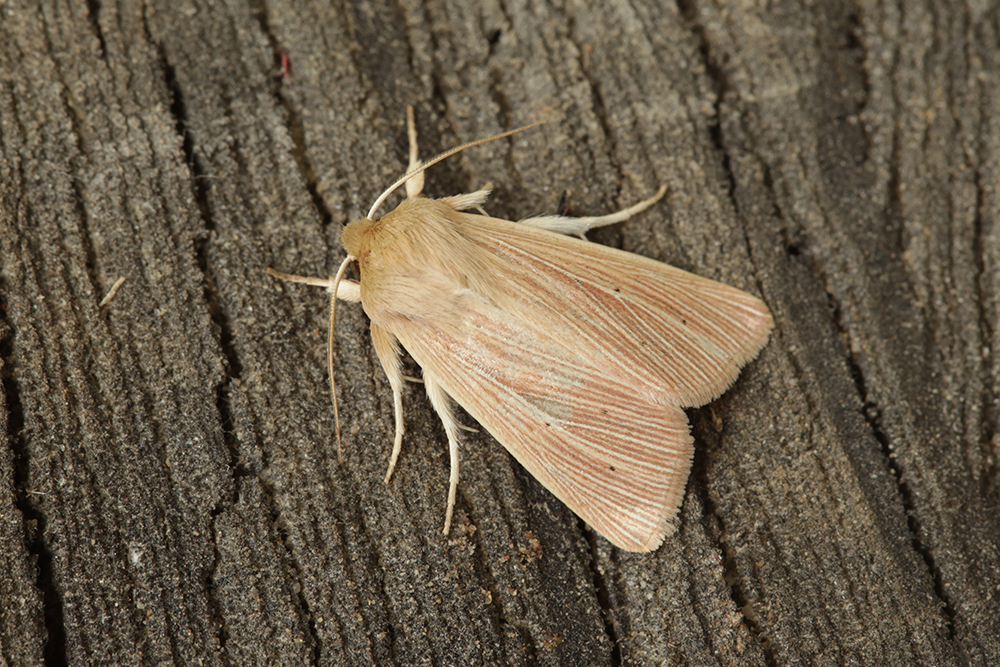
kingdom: Animalia
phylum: Arthropoda
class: Insecta
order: Lepidoptera
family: Noctuidae
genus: Mythimna
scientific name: Mythimna pallens
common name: Common wainscot
